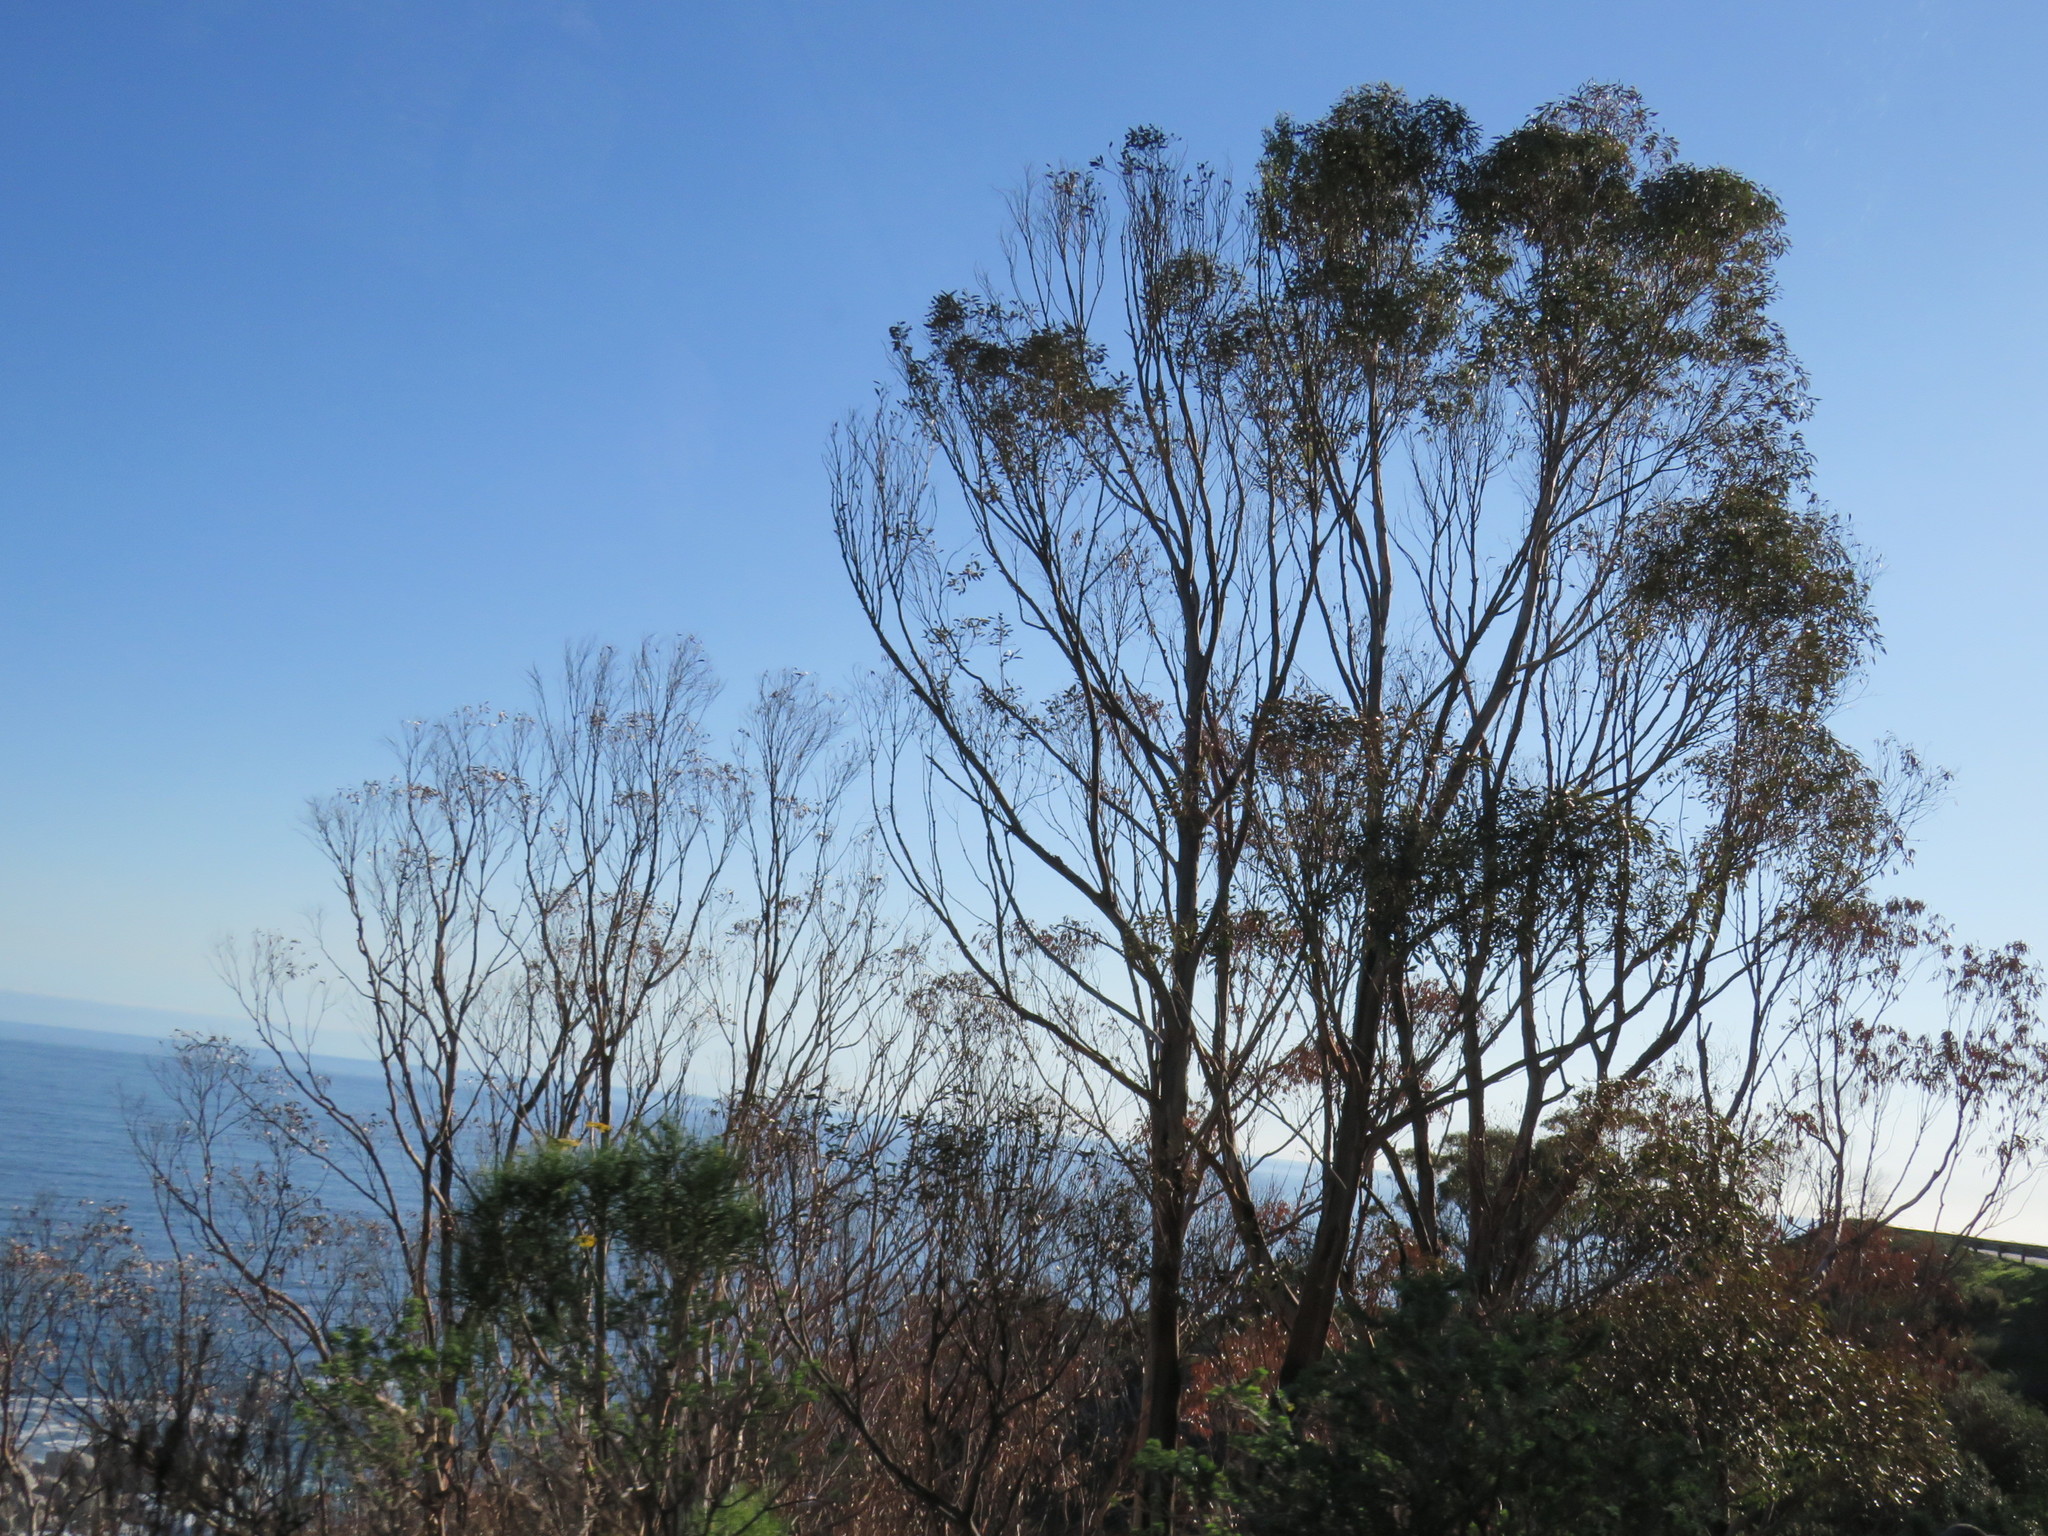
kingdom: Plantae
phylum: Tracheophyta
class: Magnoliopsida
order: Myrtales
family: Myrtaceae
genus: Eucalyptus
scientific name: Eucalyptus cladocalyx
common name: Sugargum
